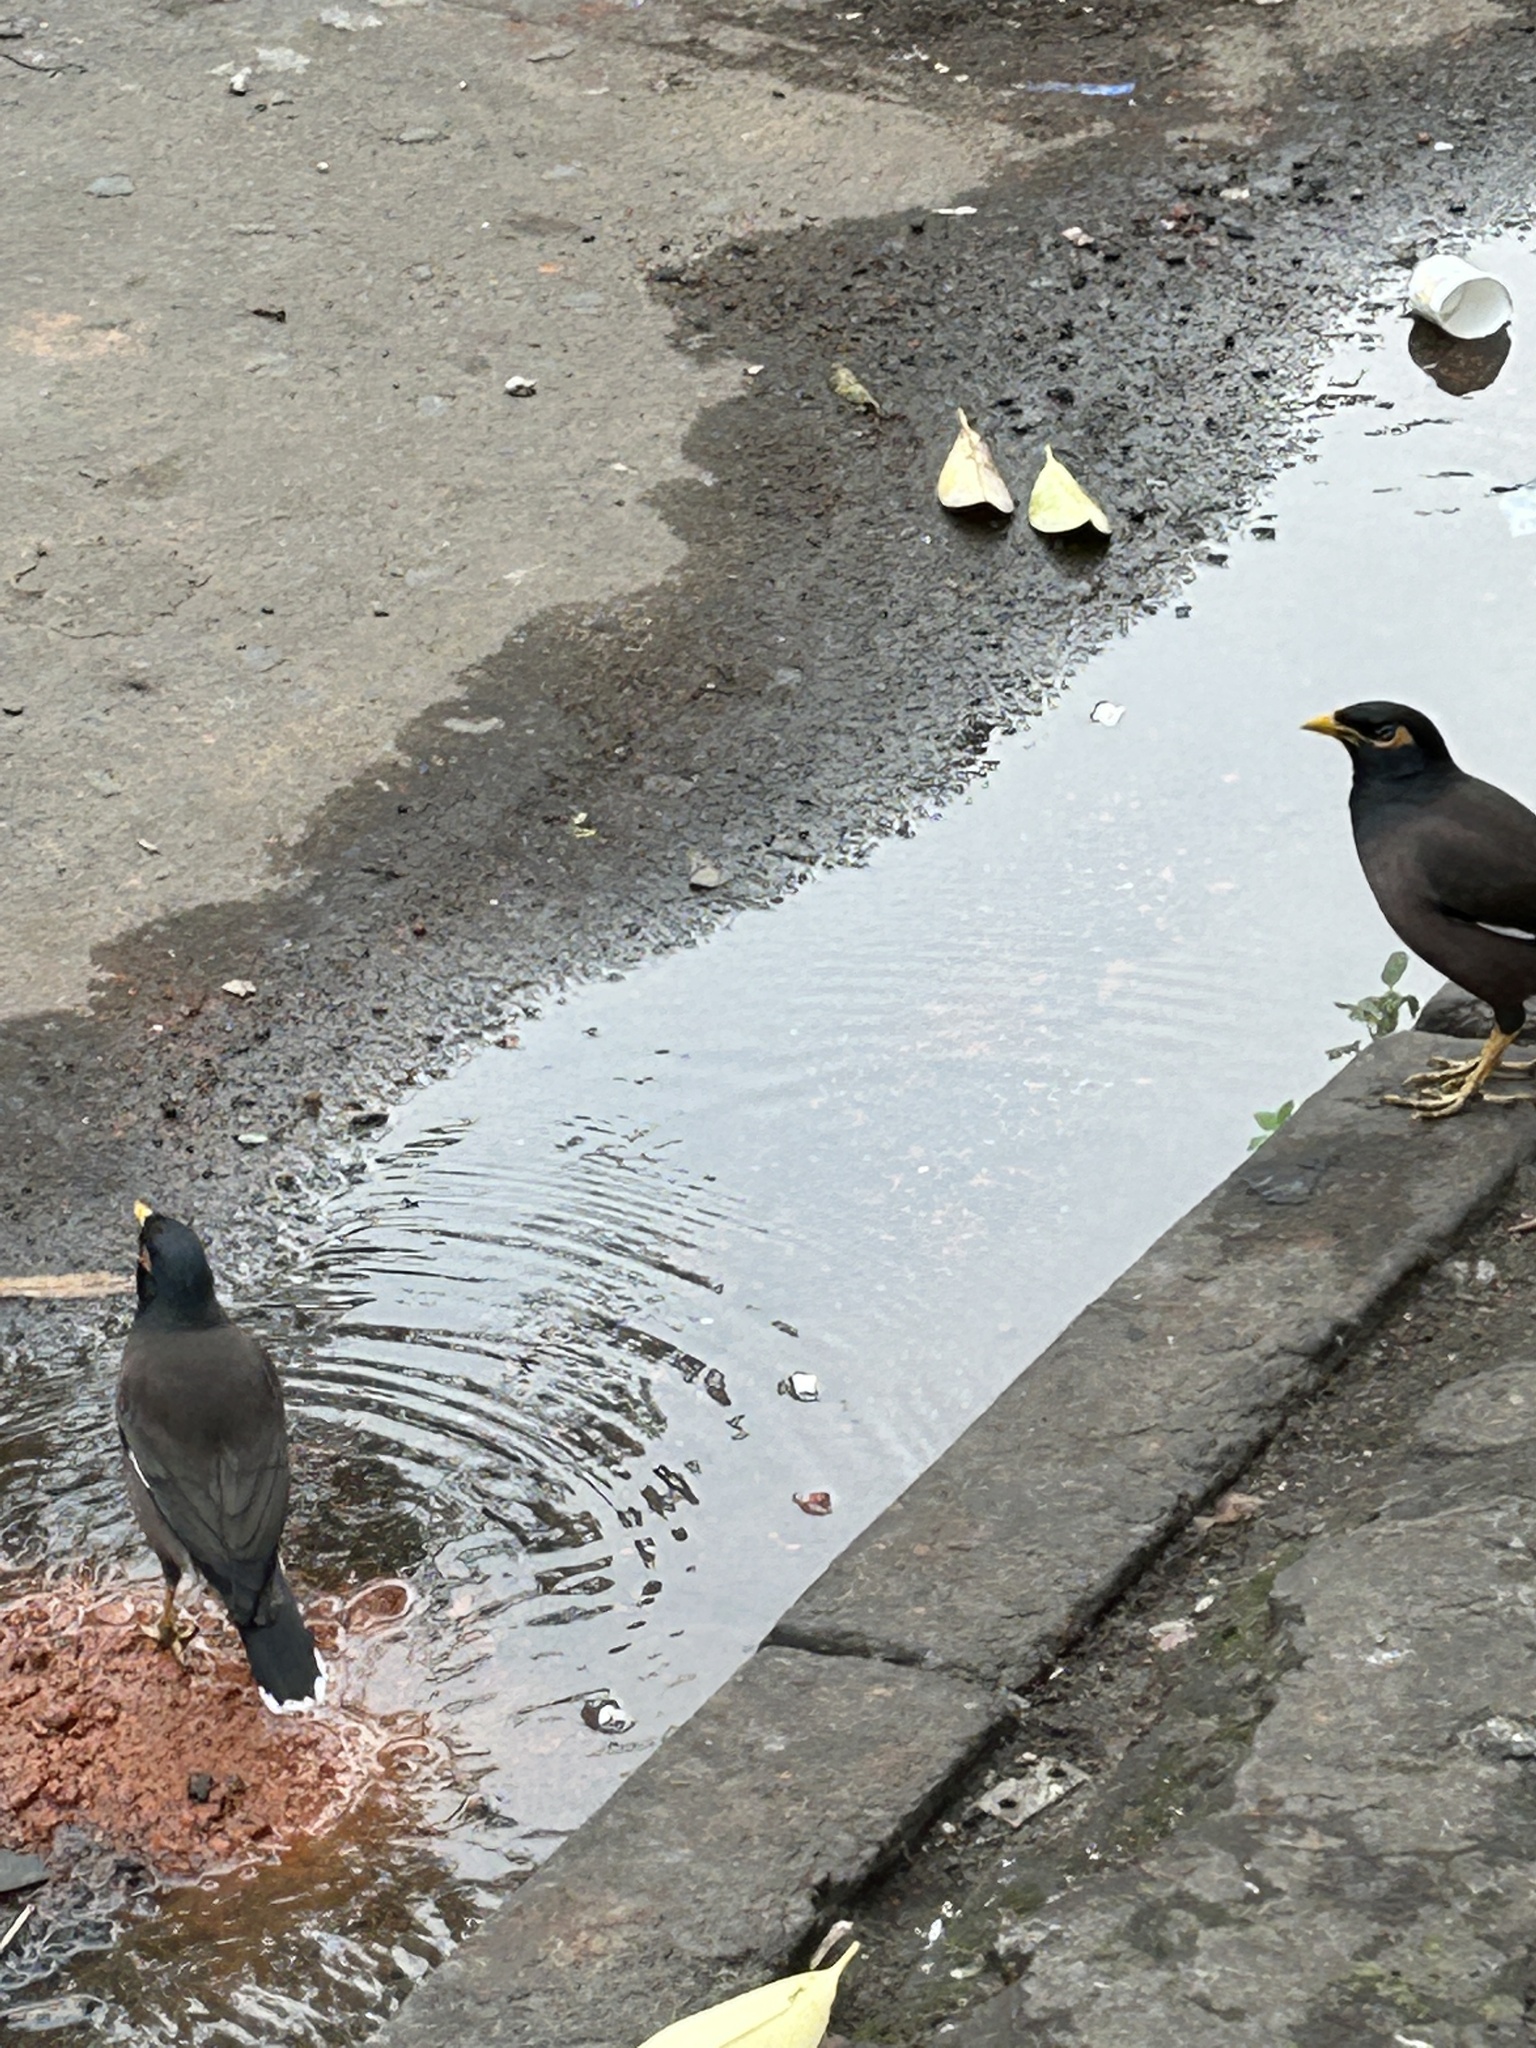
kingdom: Animalia
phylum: Chordata
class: Aves
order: Passeriformes
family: Sturnidae
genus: Acridotheres
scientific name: Acridotheres tristis
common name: Common myna
